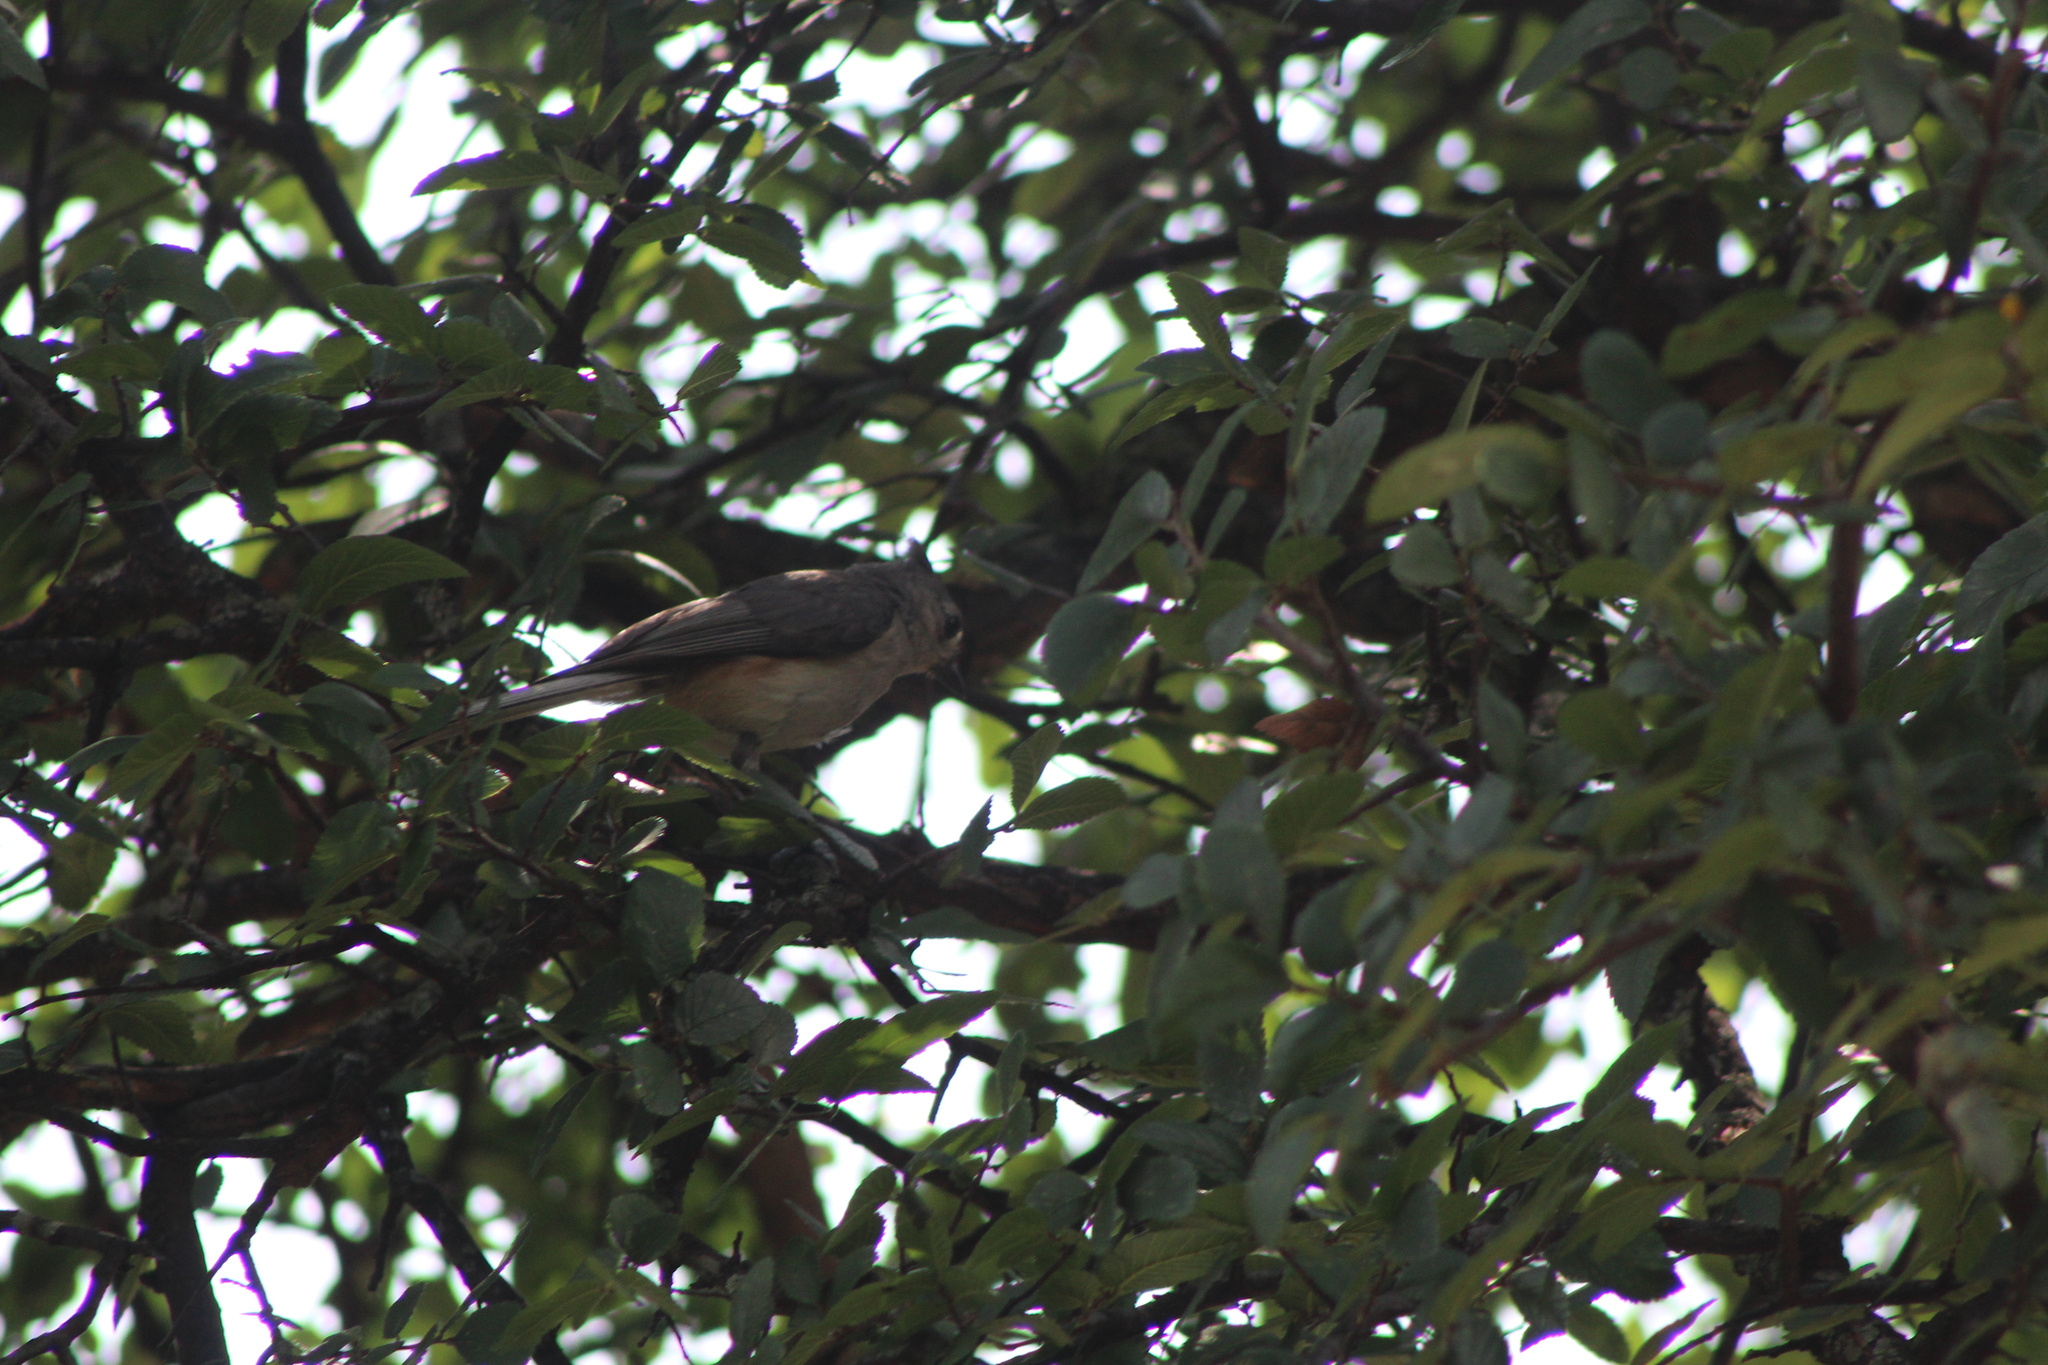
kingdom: Animalia
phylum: Chordata
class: Aves
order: Passeriformes
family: Paridae
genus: Baeolophus
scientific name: Baeolophus bicolor
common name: Tufted titmouse
